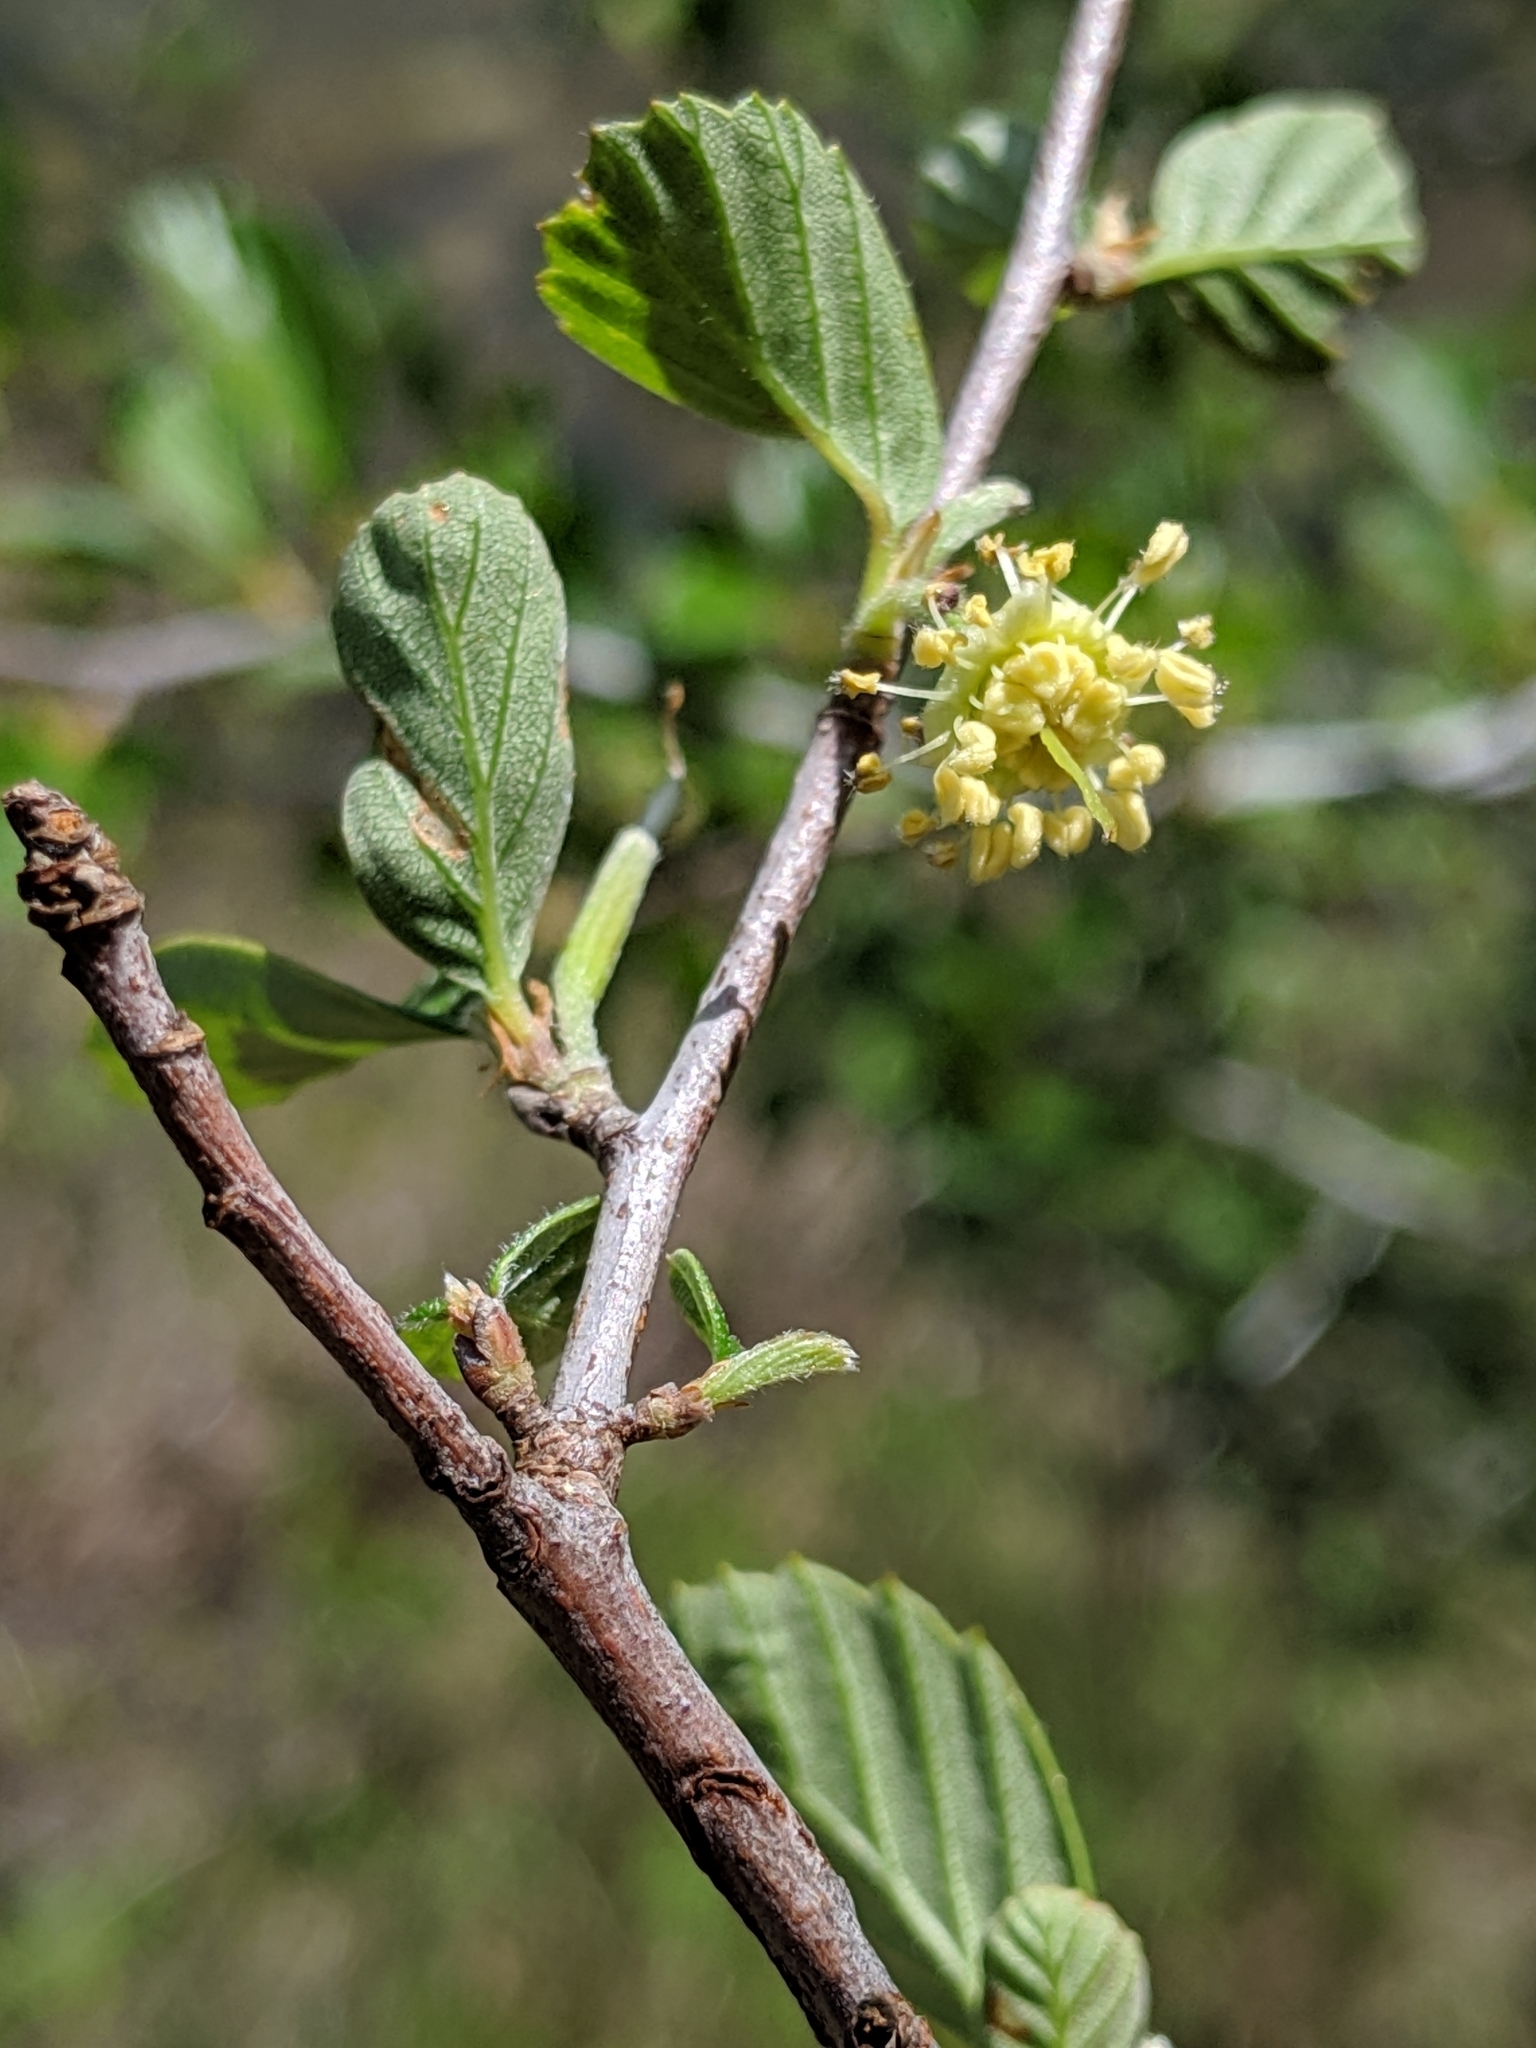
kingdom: Plantae
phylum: Tracheophyta
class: Magnoliopsida
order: Rosales
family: Rosaceae
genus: Cercocarpus
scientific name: Cercocarpus betuloides
